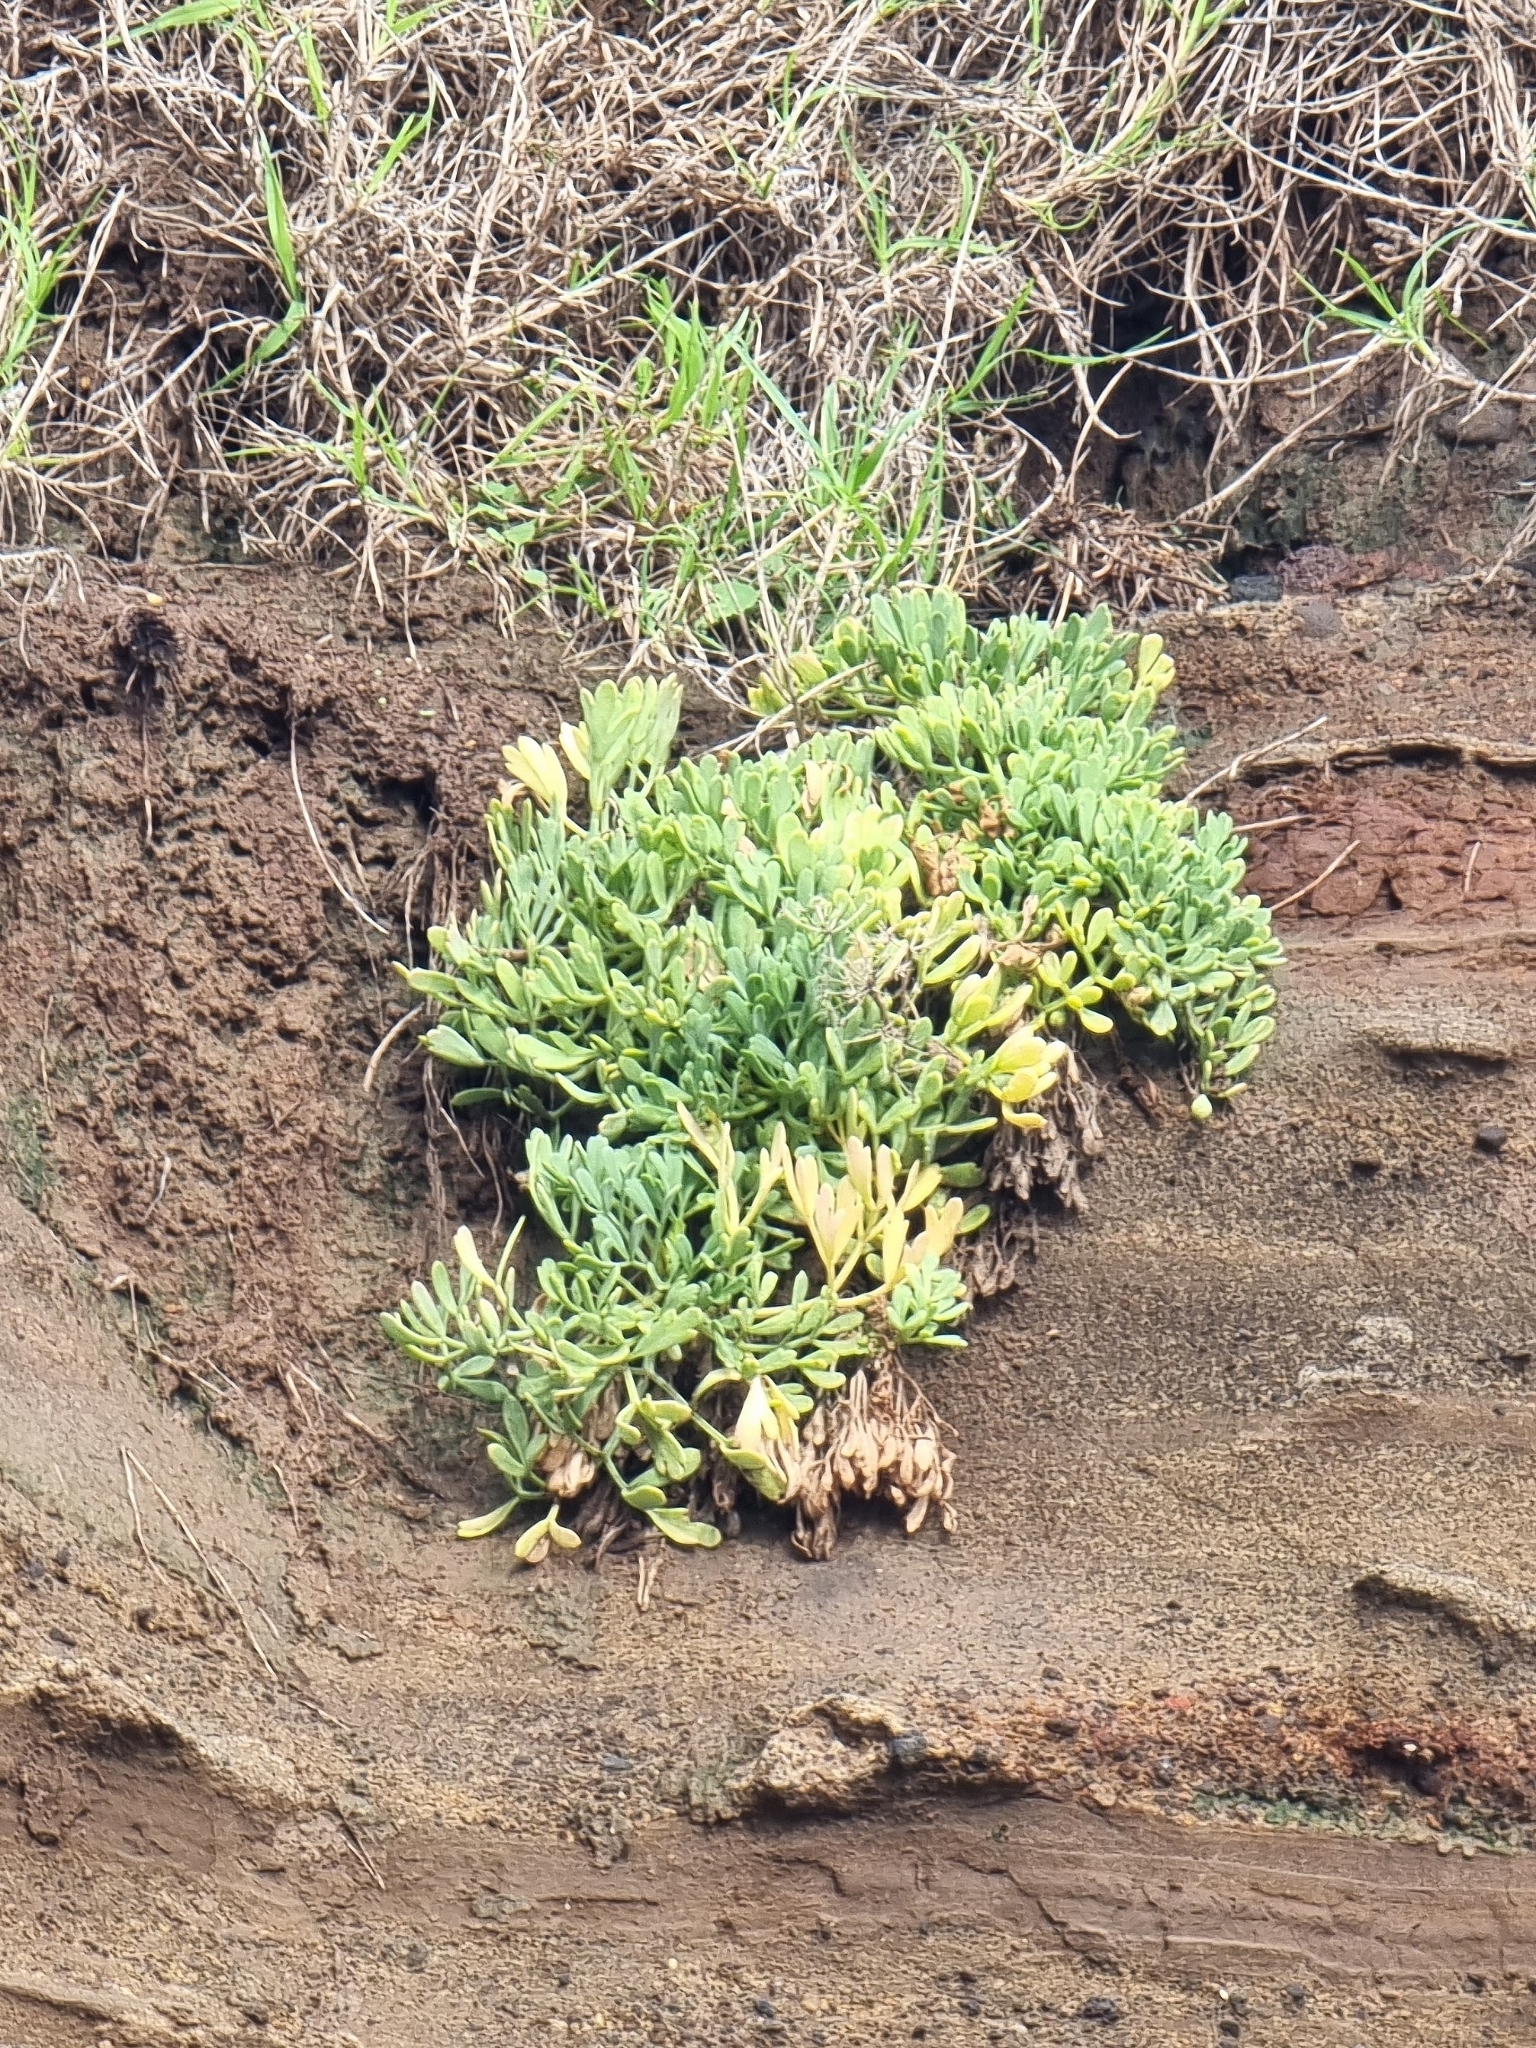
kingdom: Plantae
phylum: Tracheophyta
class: Magnoliopsida
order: Apiales
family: Apiaceae
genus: Crithmum
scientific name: Crithmum maritimum
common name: Rock samphire
